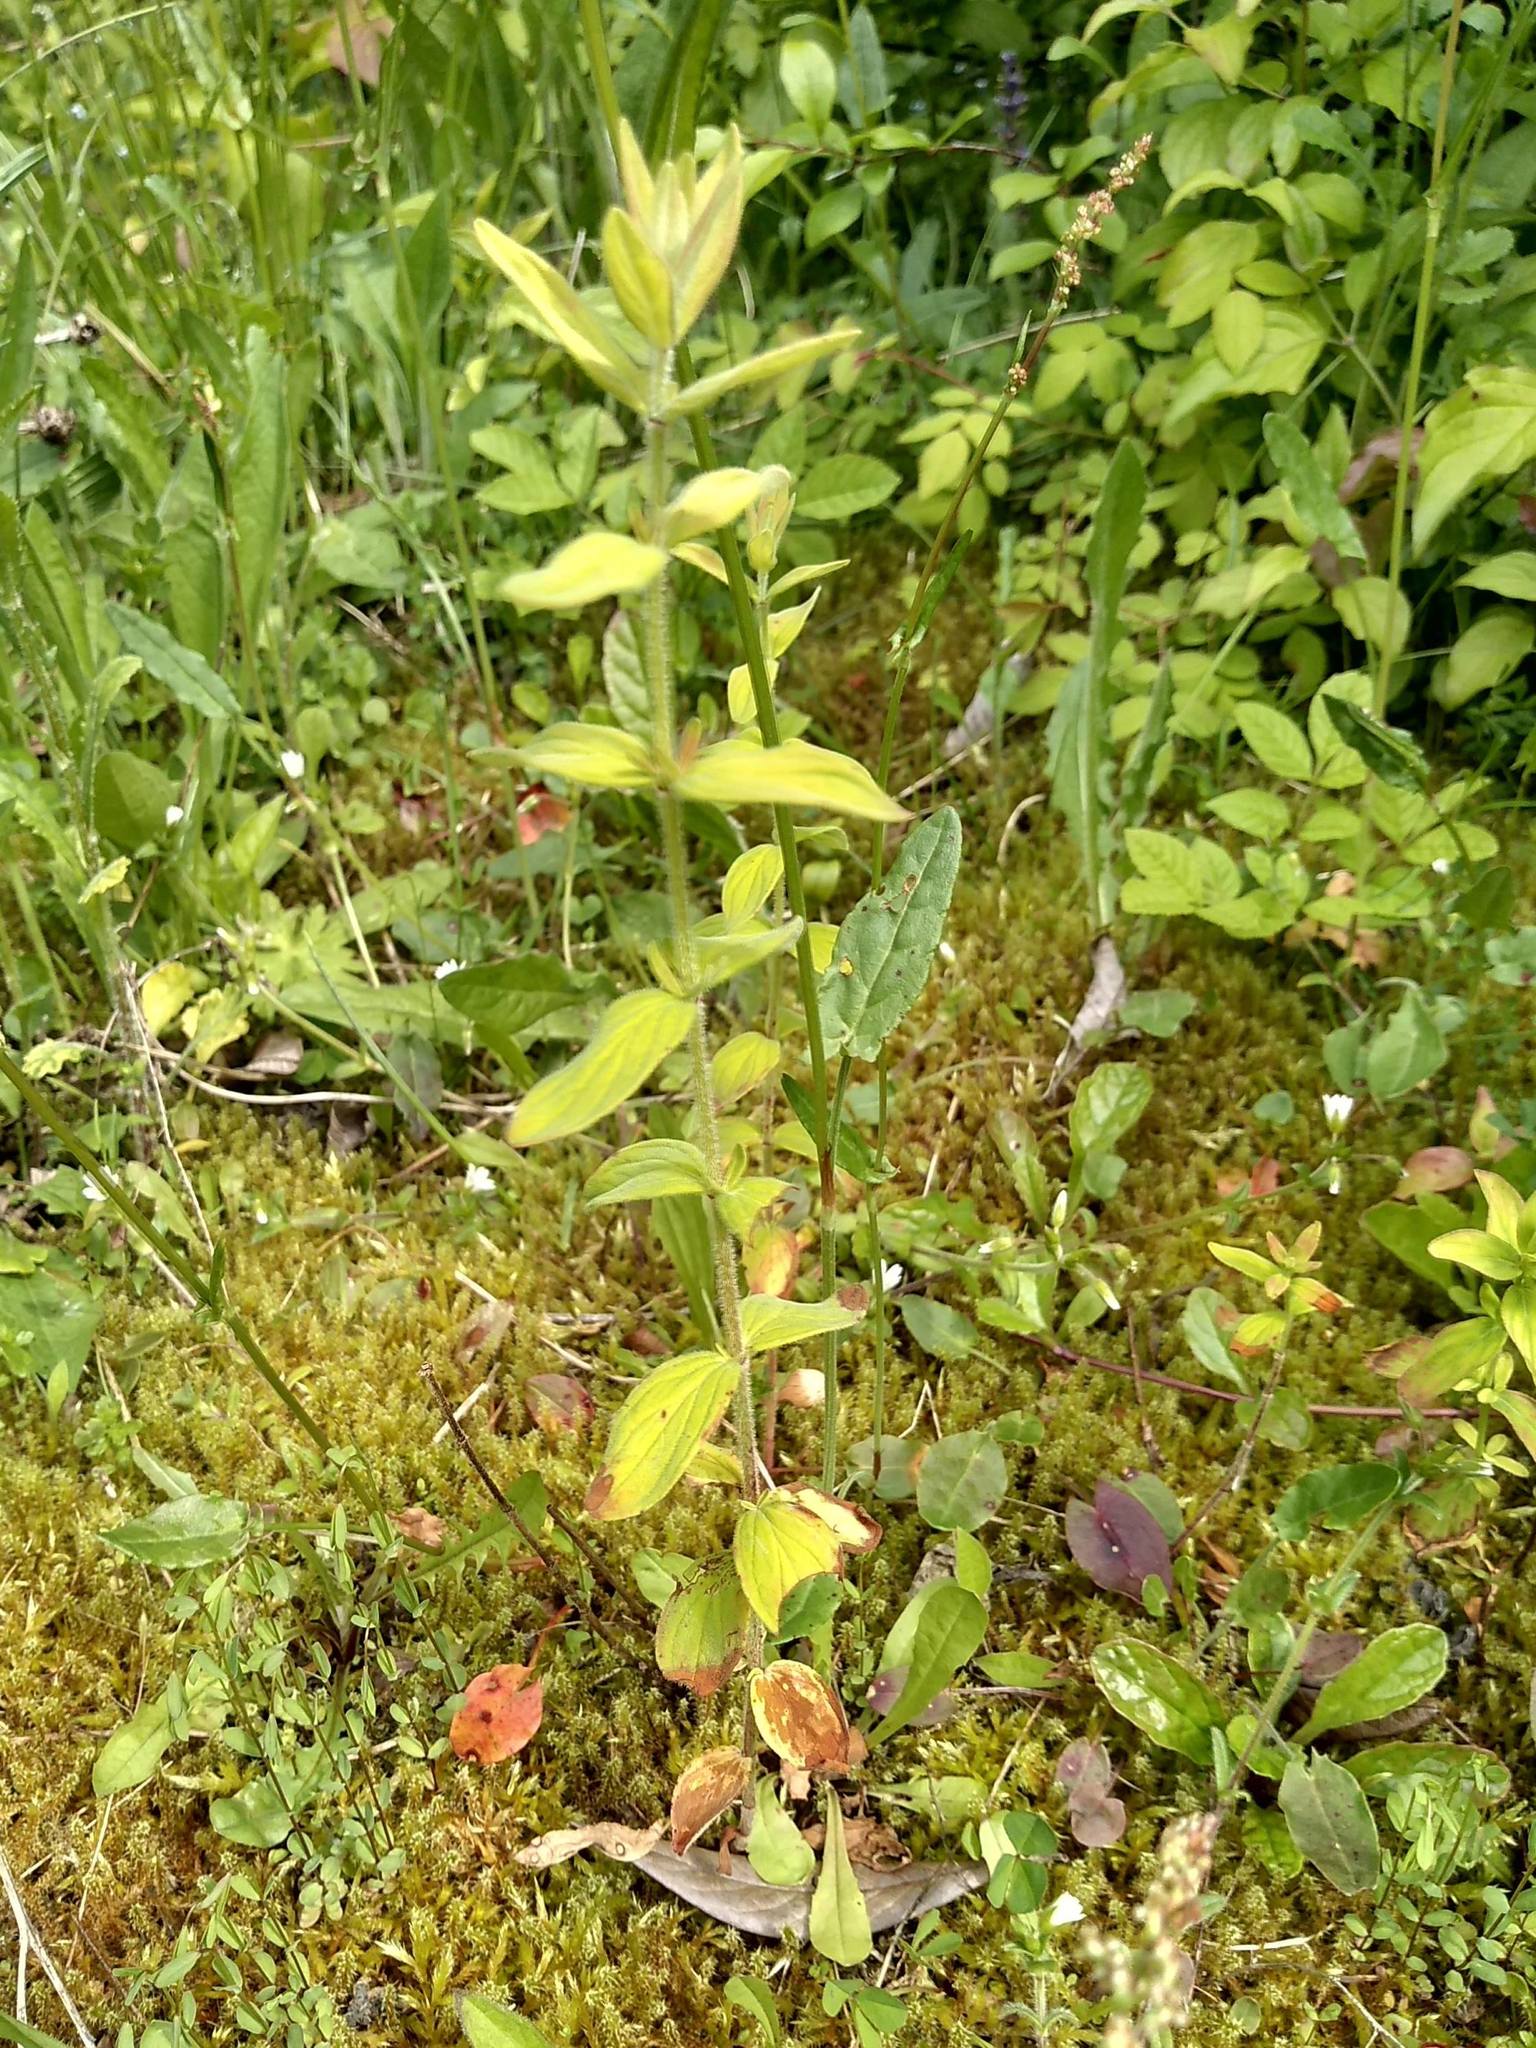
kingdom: Plantae
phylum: Tracheophyta
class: Magnoliopsida
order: Malpighiales
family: Hypericaceae
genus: Hypericum
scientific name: Hypericum hirsutum
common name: Hairy st. john's-wort
